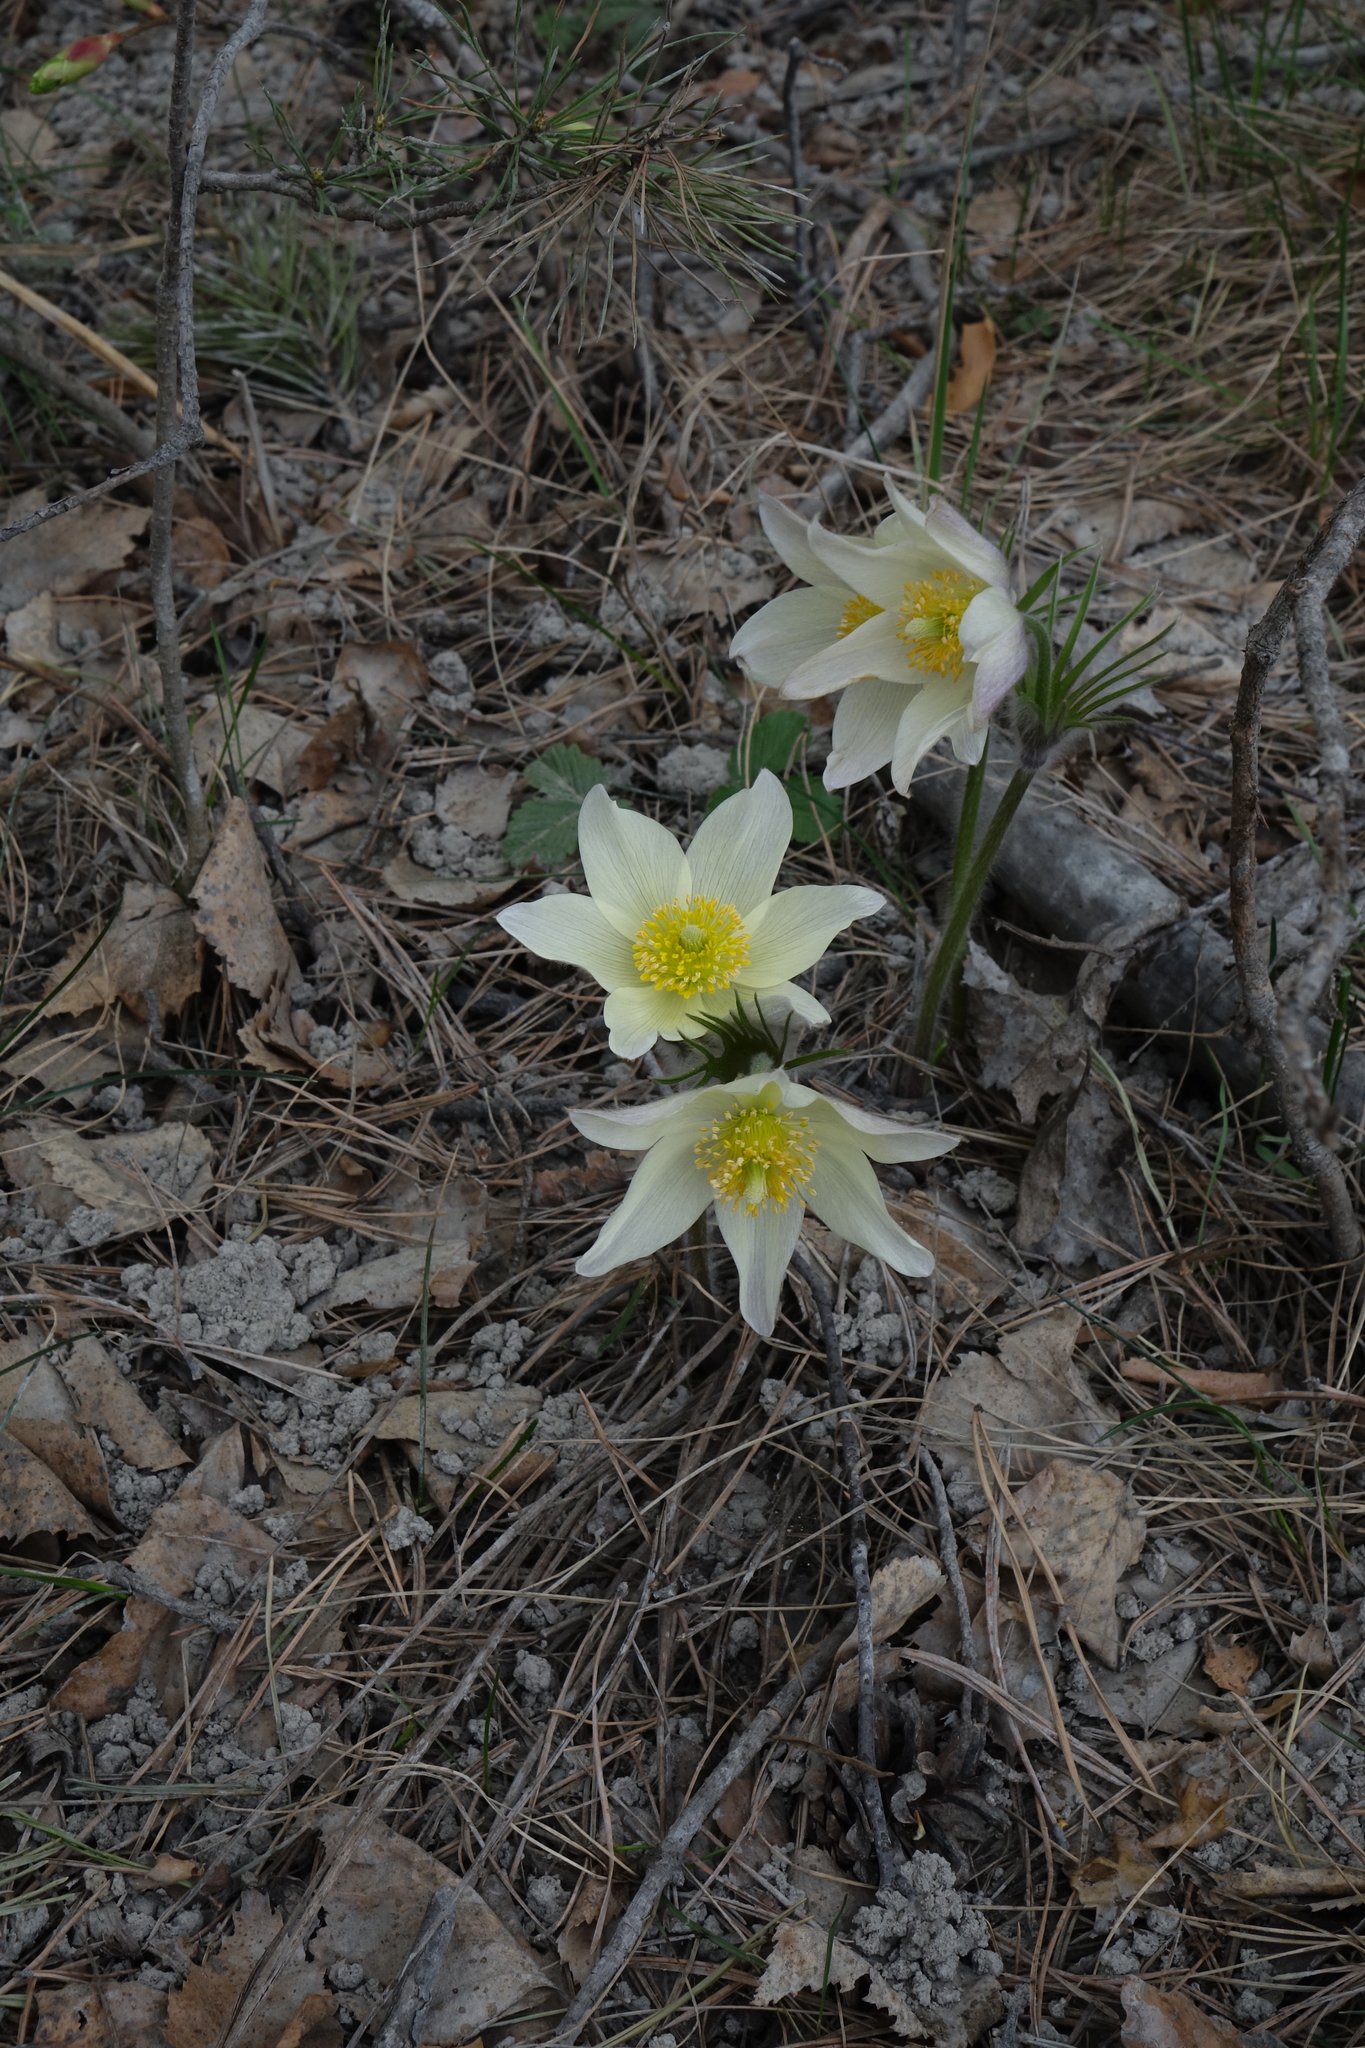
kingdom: Plantae
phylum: Tracheophyta
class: Magnoliopsida
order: Ranunculales
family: Ranunculaceae
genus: Pulsatilla
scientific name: Pulsatilla patens
